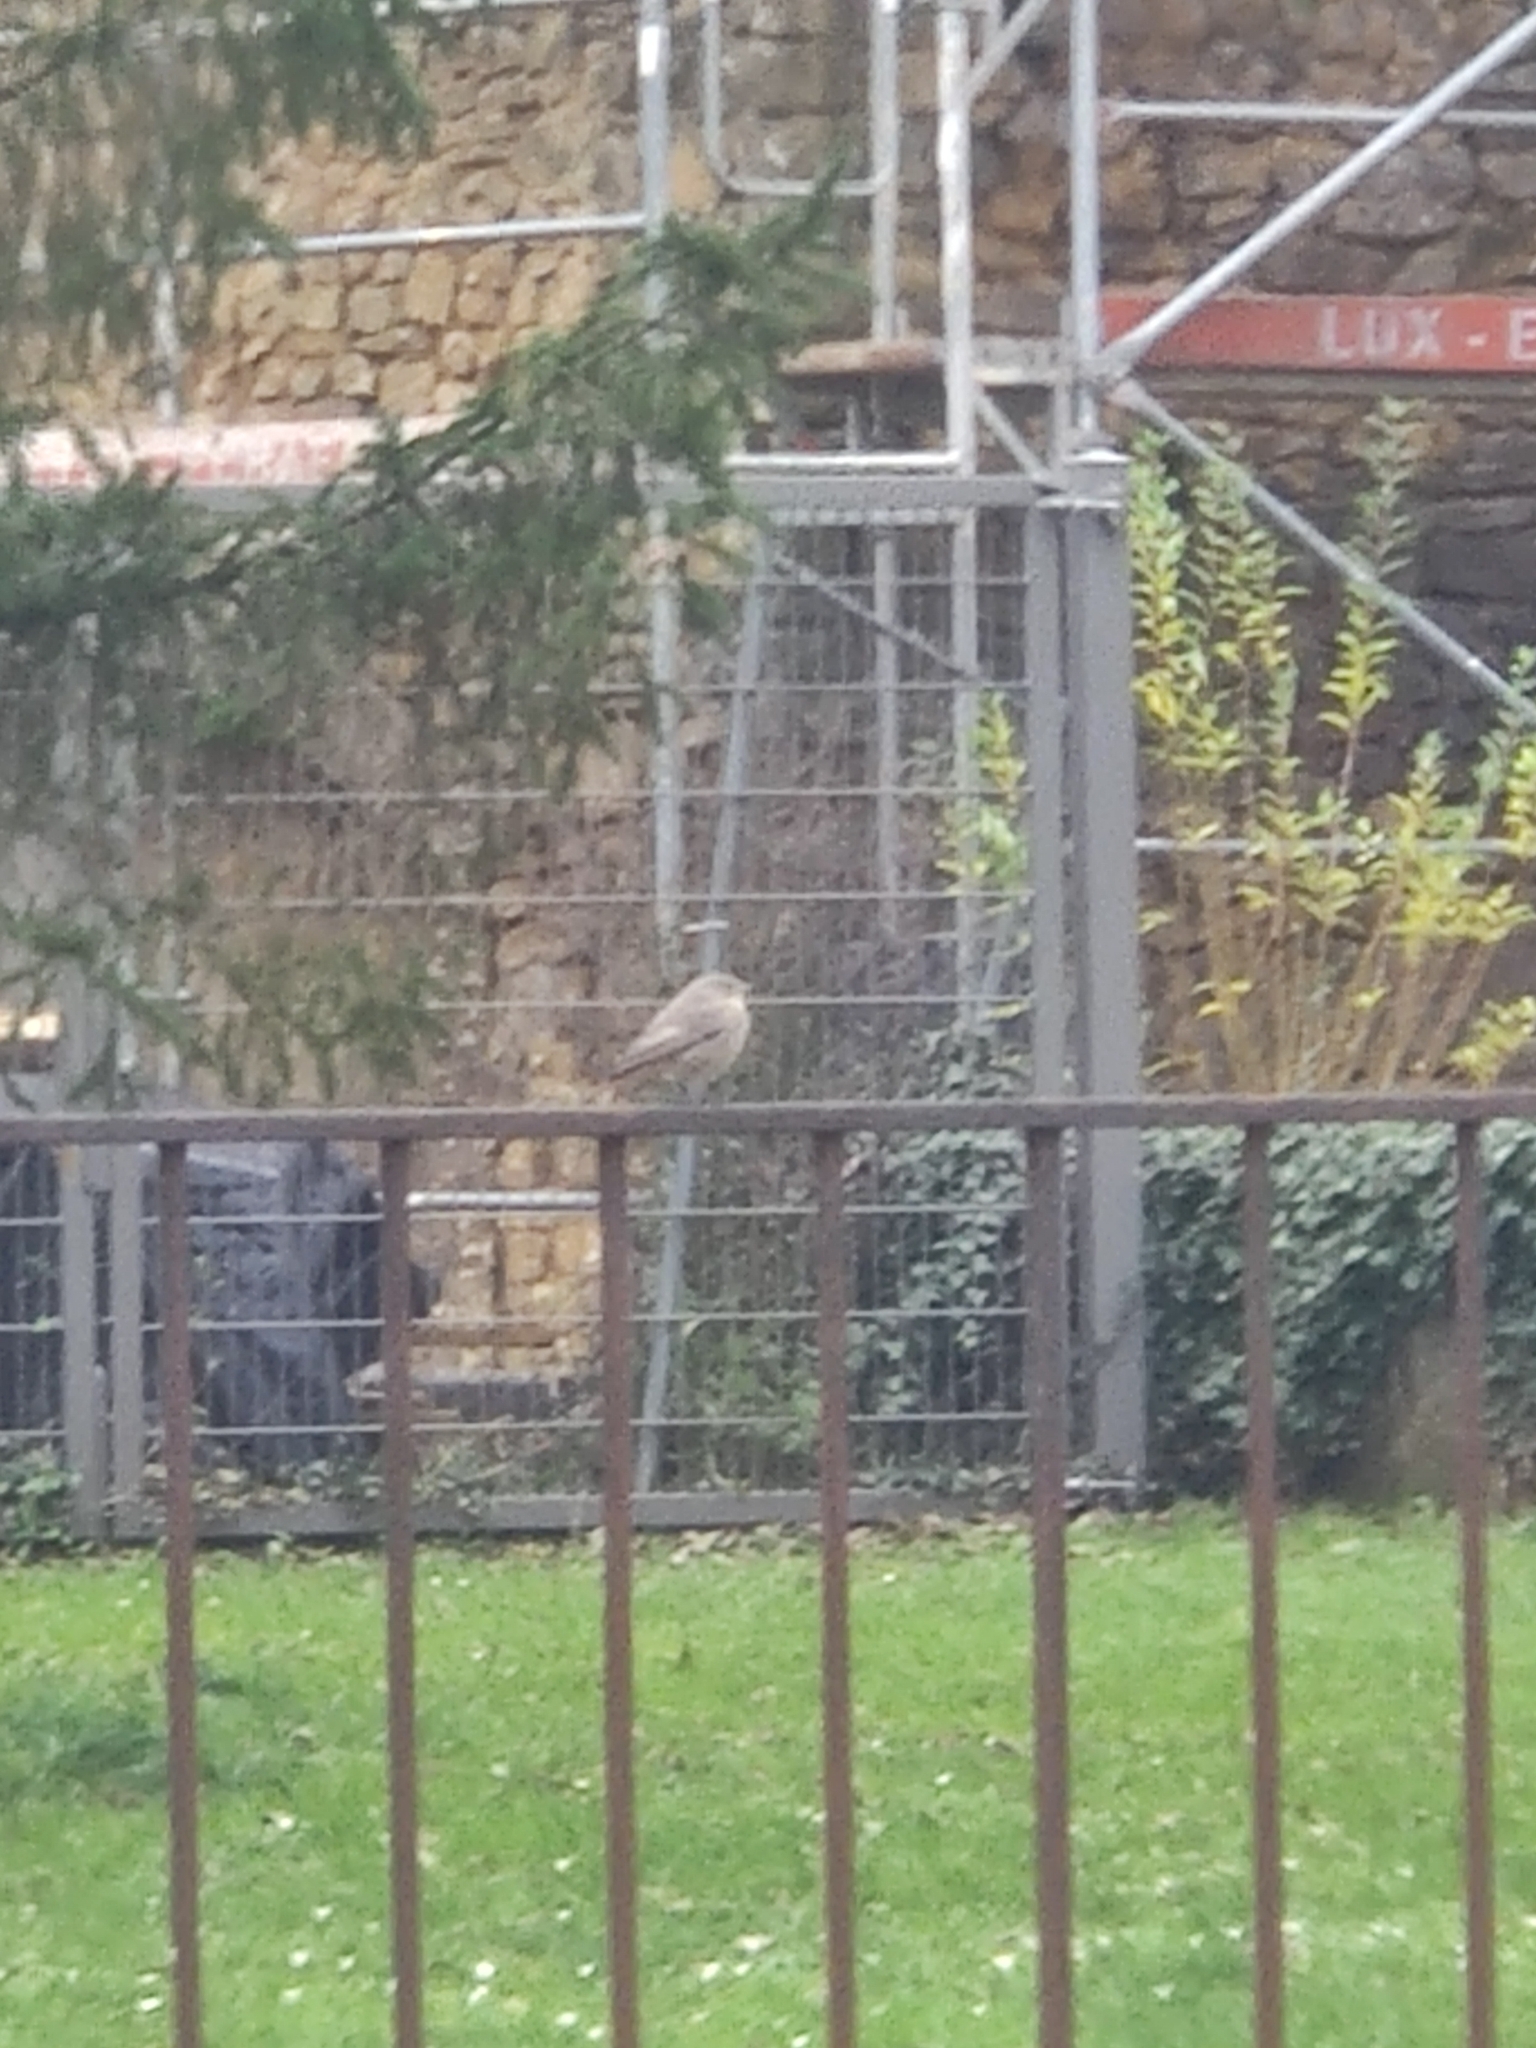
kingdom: Animalia
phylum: Chordata
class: Aves
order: Passeriformes
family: Muscicapidae
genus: Phoenicurus
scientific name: Phoenicurus ochruros
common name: Black redstart
